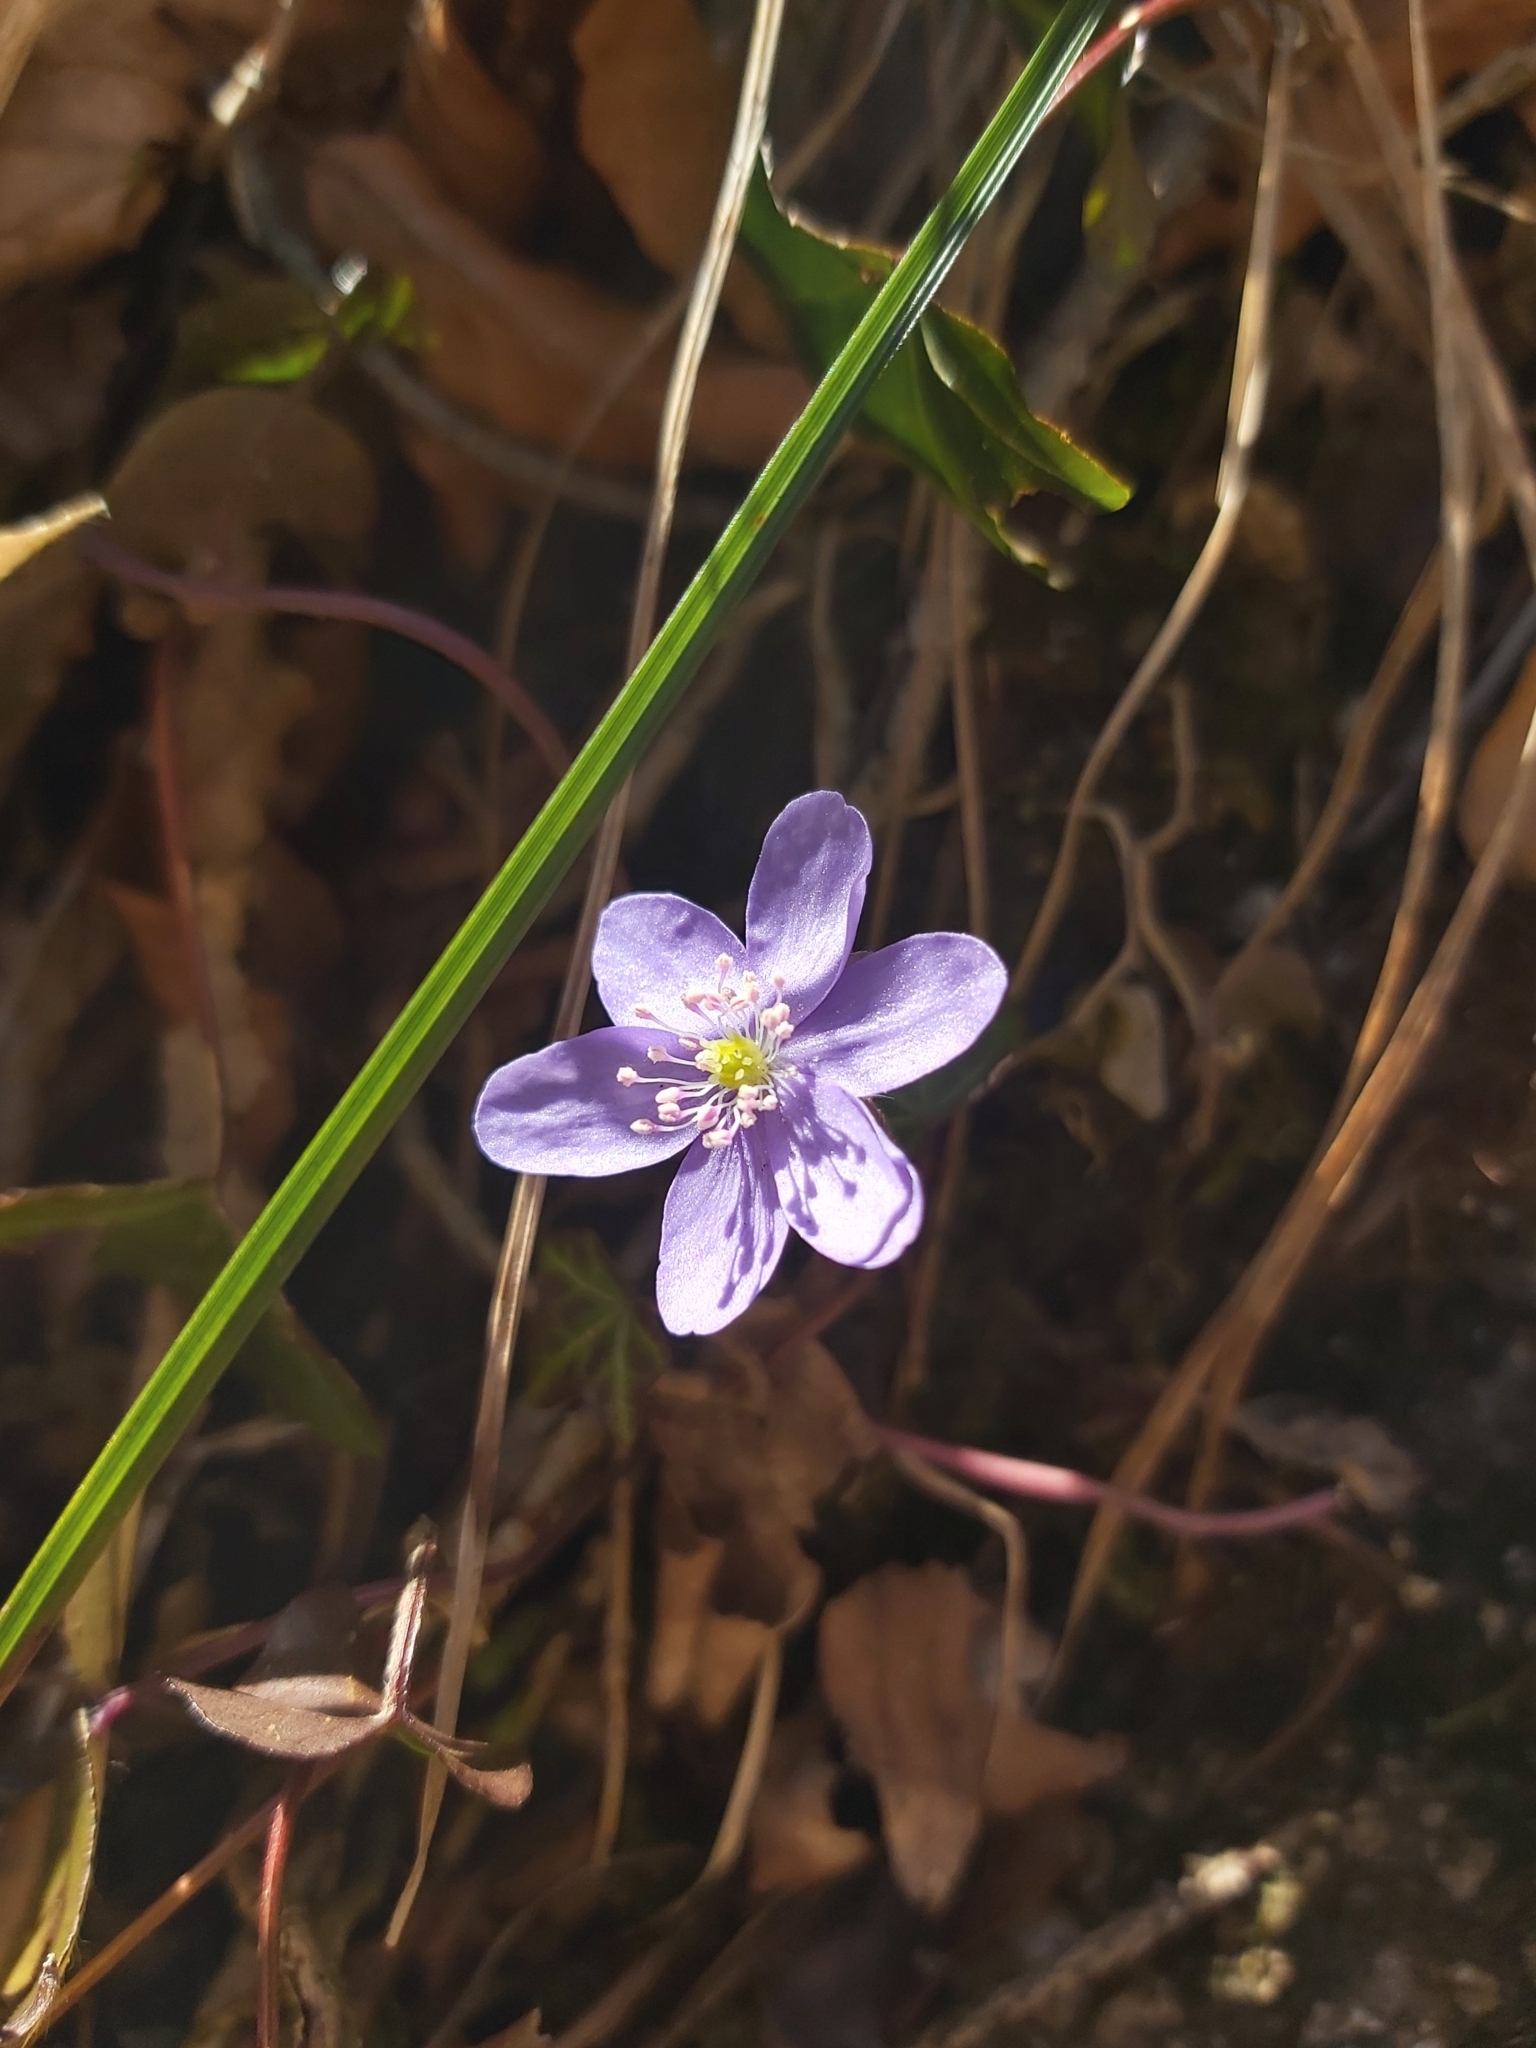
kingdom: Plantae
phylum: Tracheophyta
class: Magnoliopsida
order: Ranunculales
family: Ranunculaceae
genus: Hepatica
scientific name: Hepatica nobilis
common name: Liverleaf
